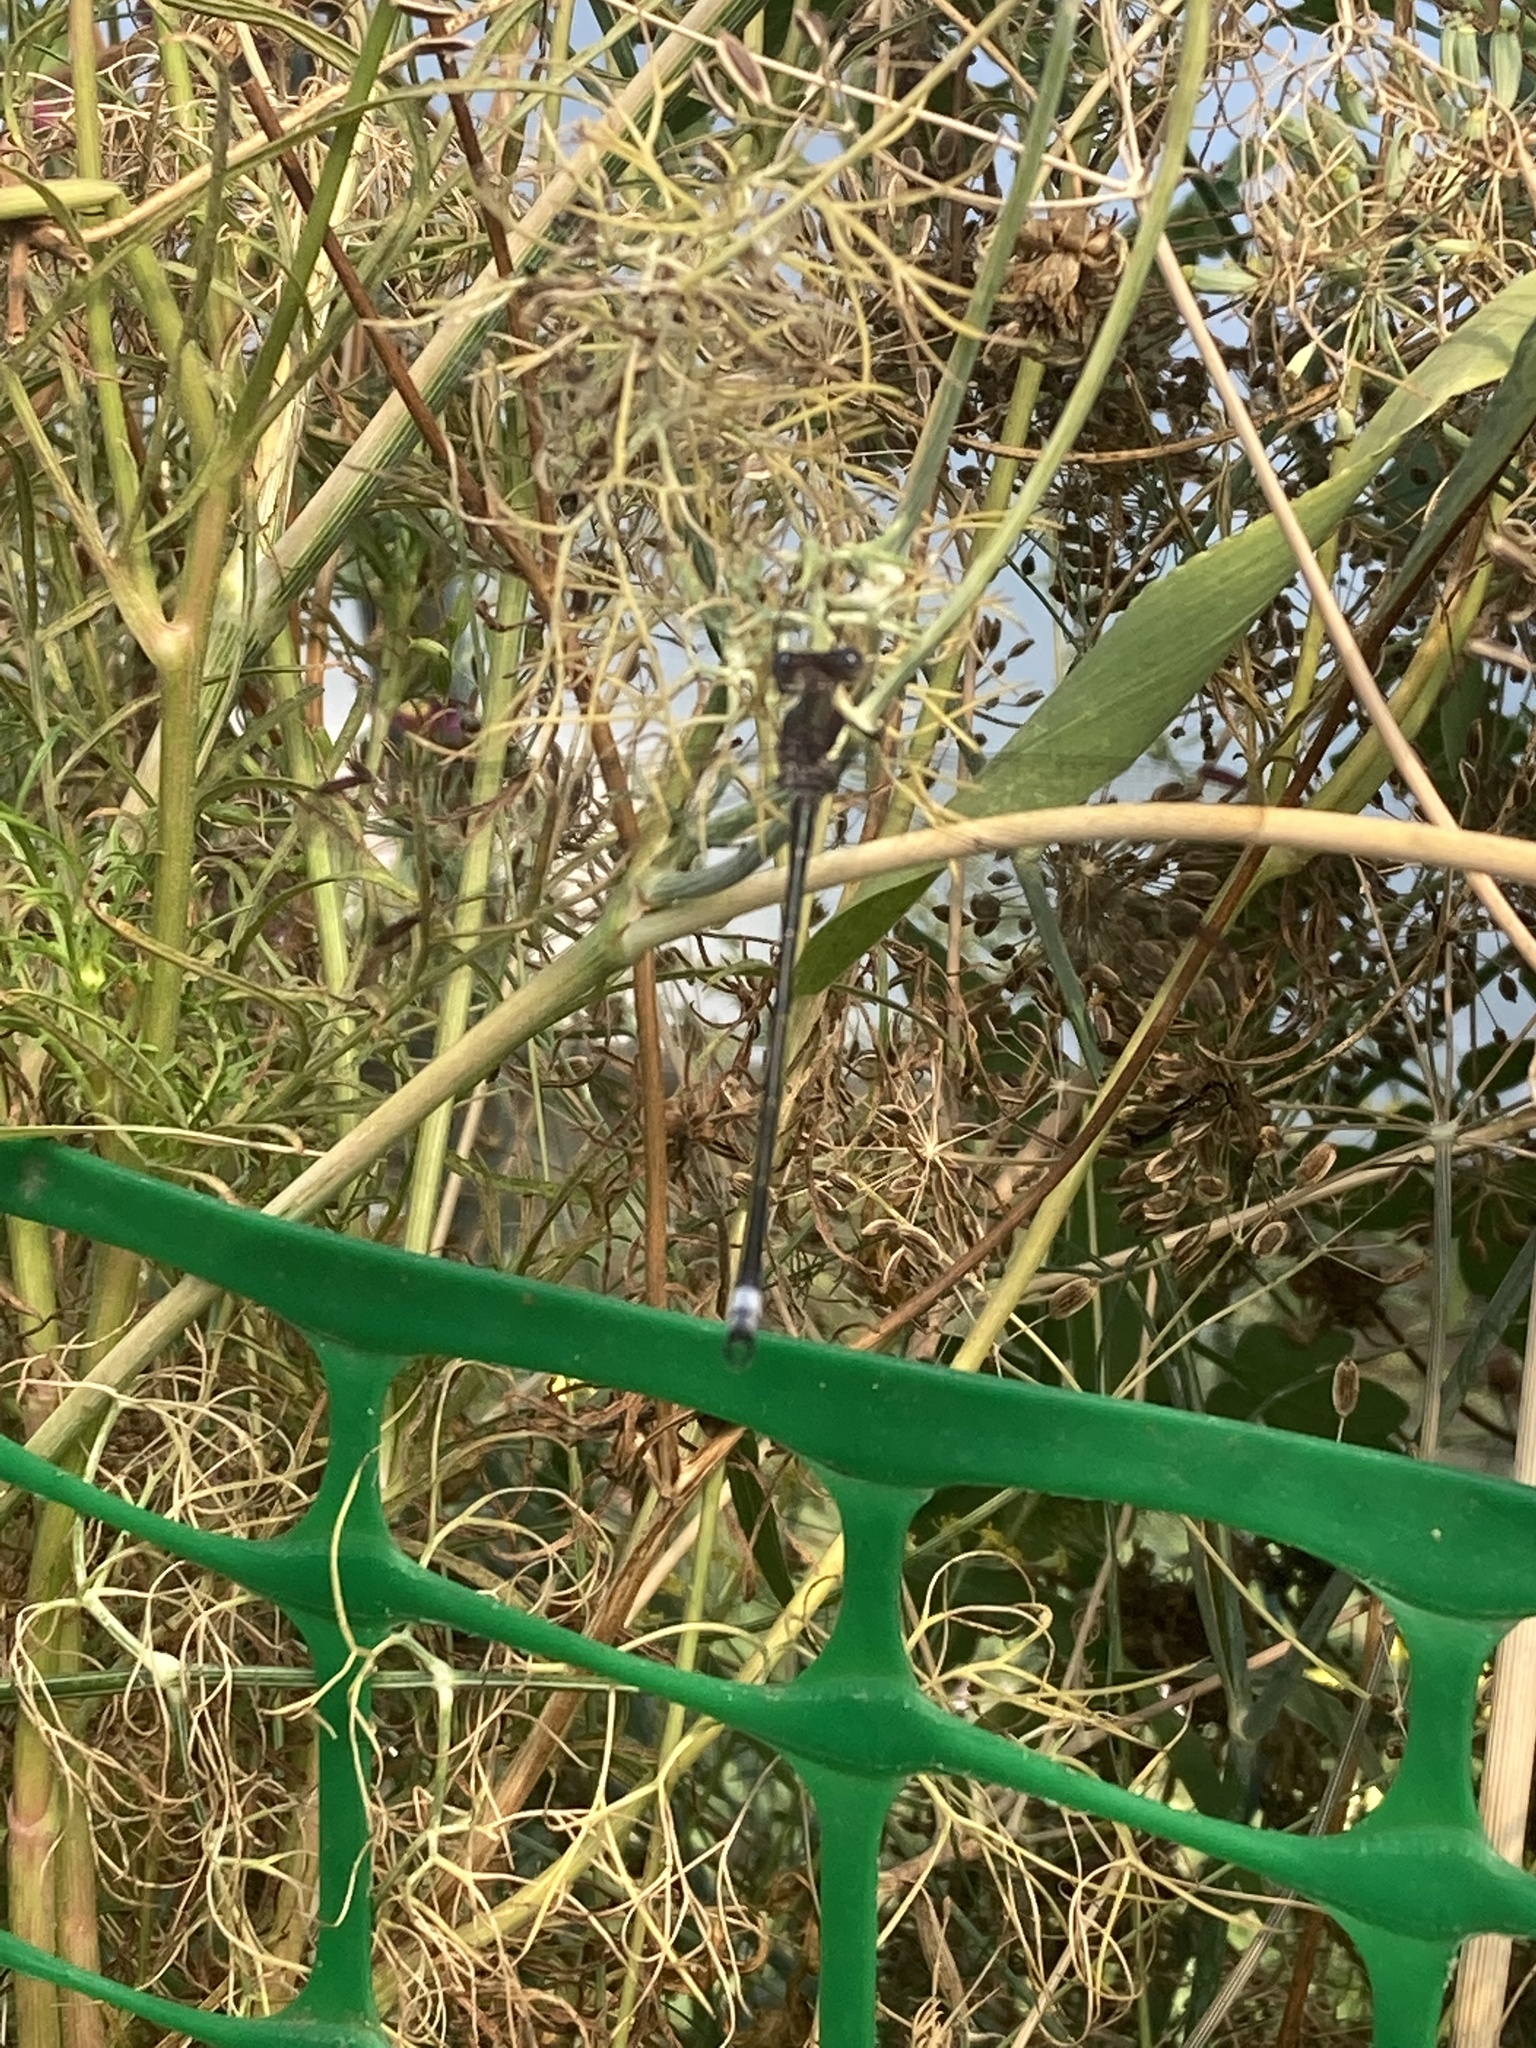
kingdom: Animalia
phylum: Arthropoda
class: Insecta
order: Odonata
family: Lestidae
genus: Archilestes
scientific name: Archilestes grandis
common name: Great spreadwing
